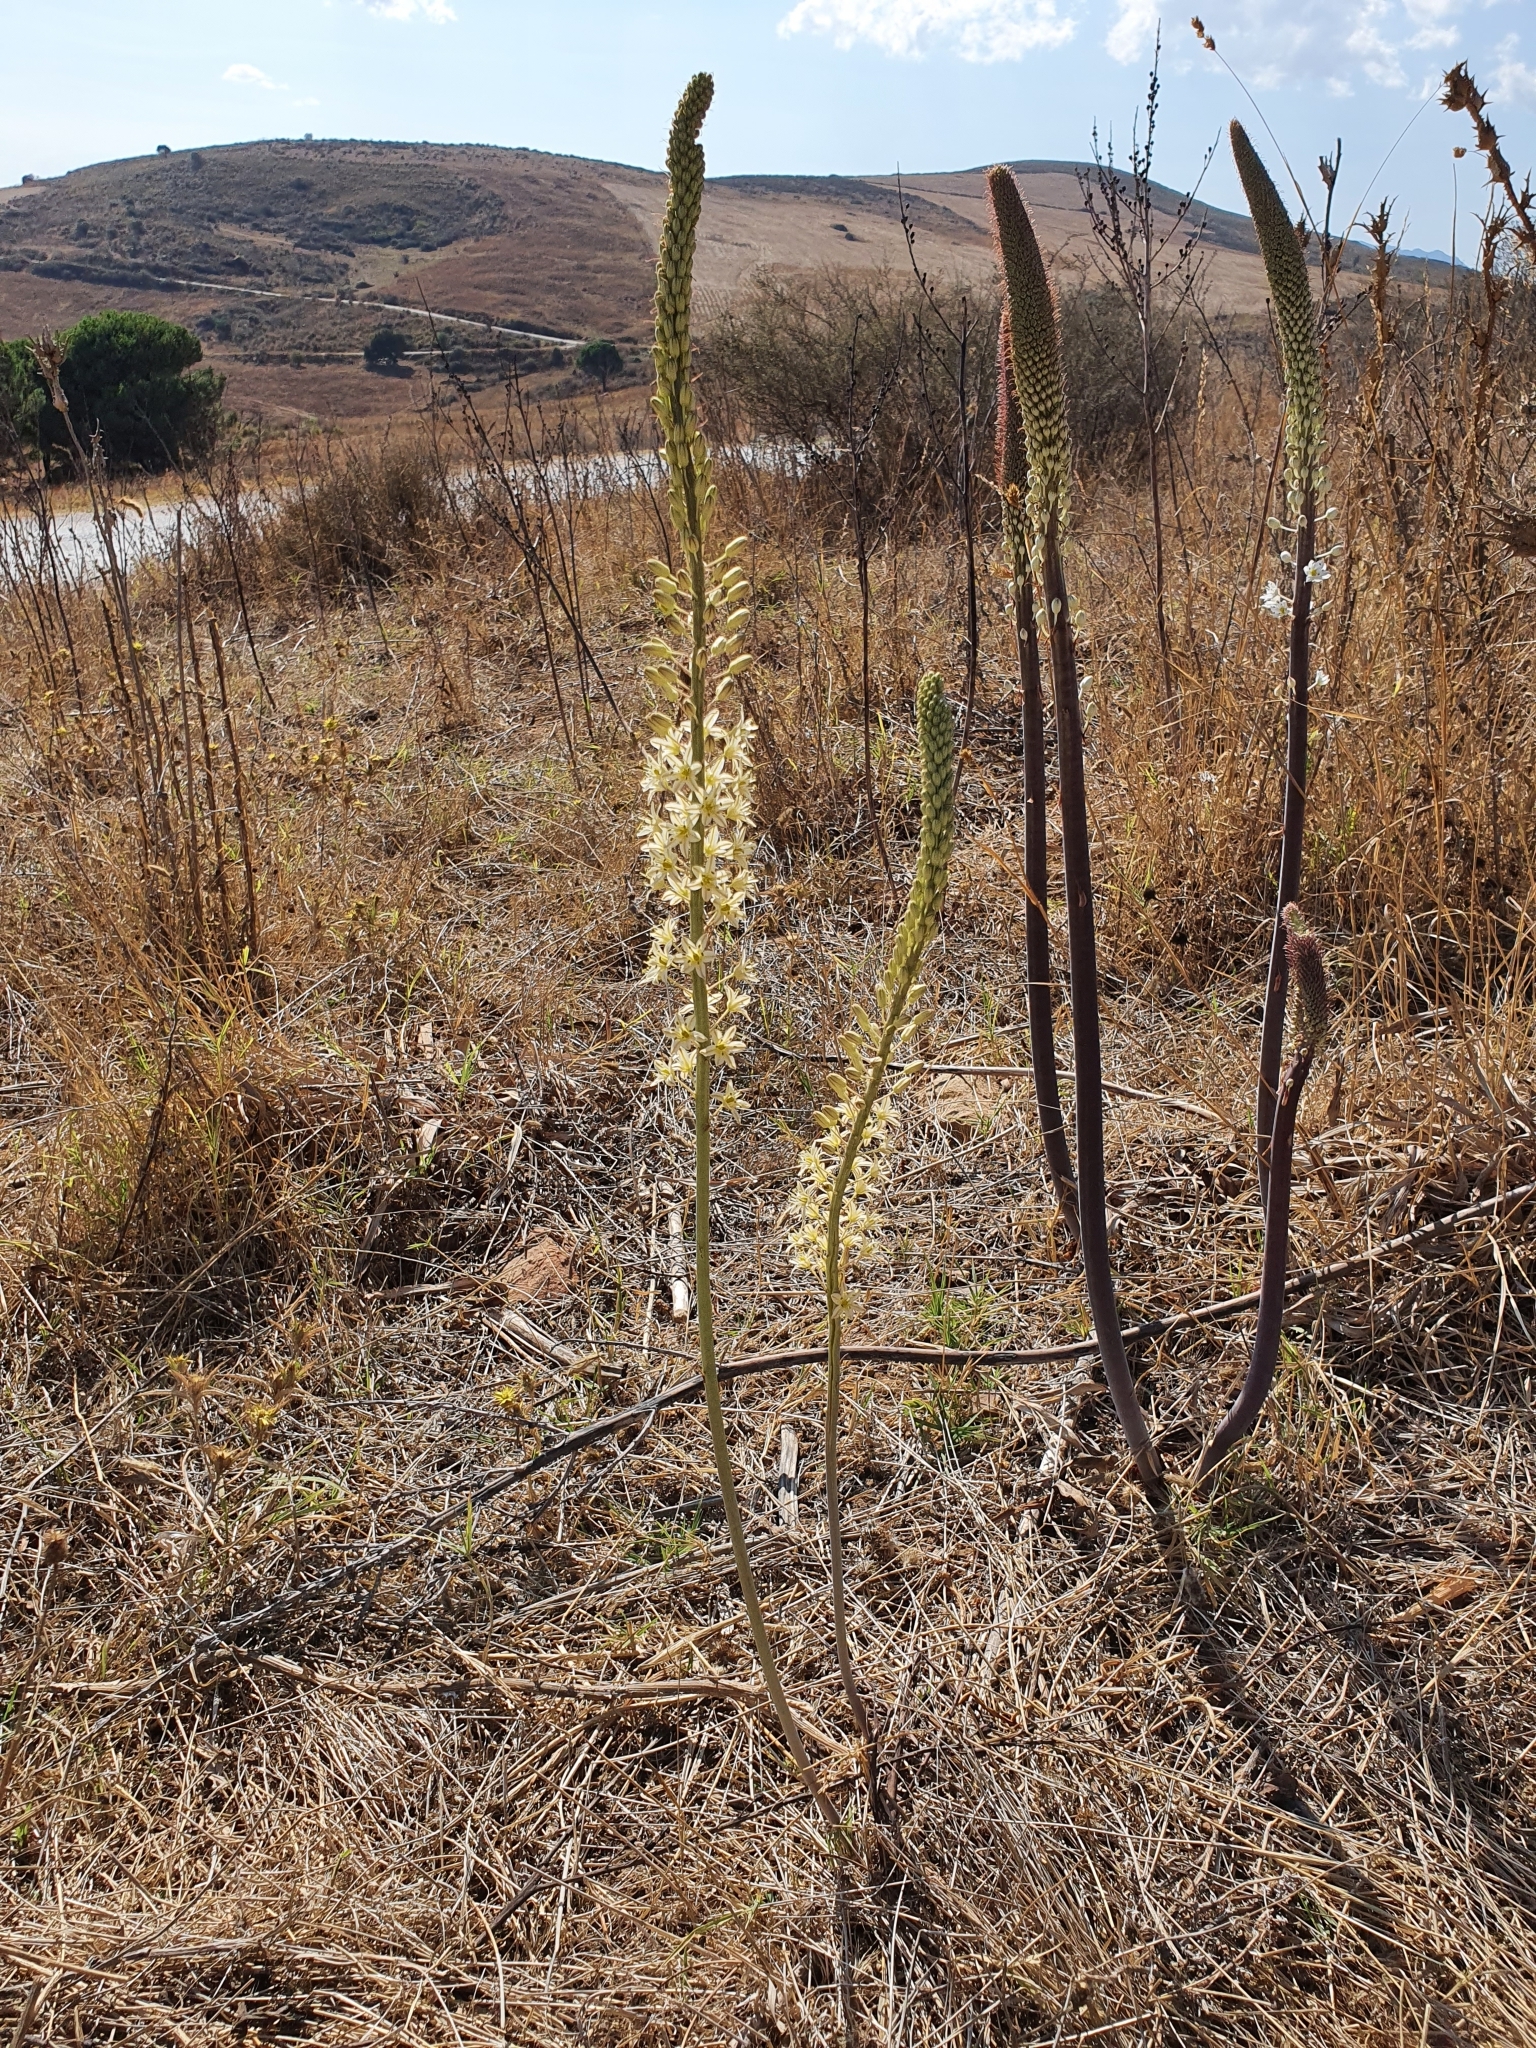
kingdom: Plantae
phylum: Tracheophyta
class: Liliopsida
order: Asparagales
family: Asparagaceae
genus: Drimia
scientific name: Drimia anthericoides
